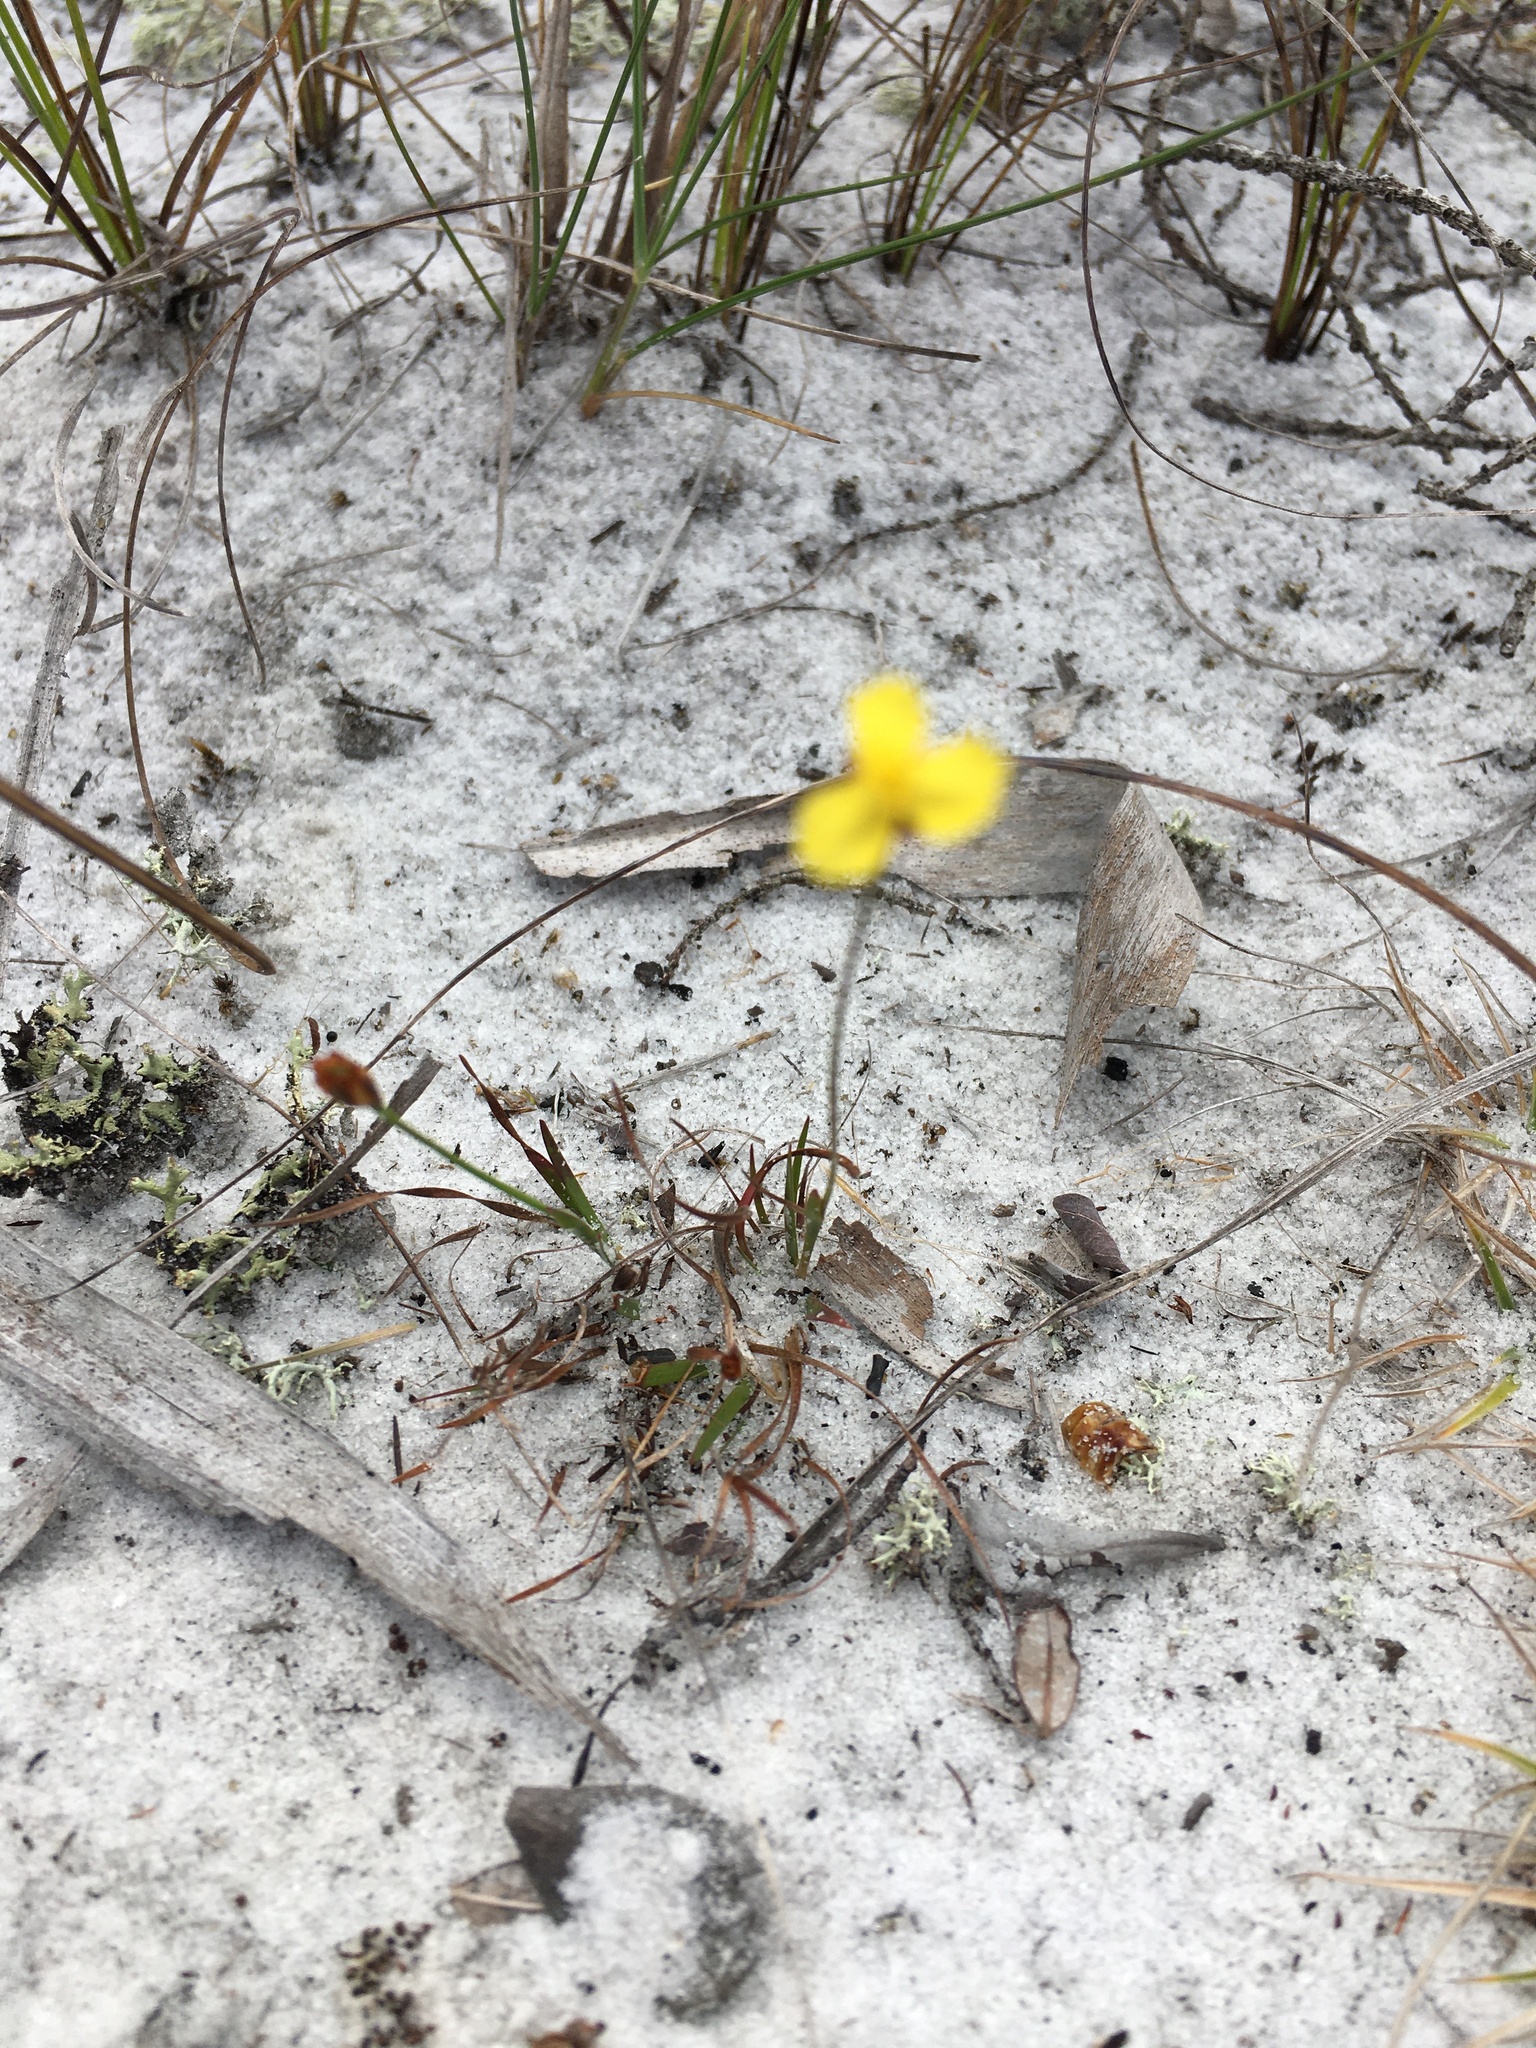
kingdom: Plantae
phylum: Tracheophyta
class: Liliopsida
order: Poales
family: Xyridaceae
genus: Xyris
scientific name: Xyris brevifolia
